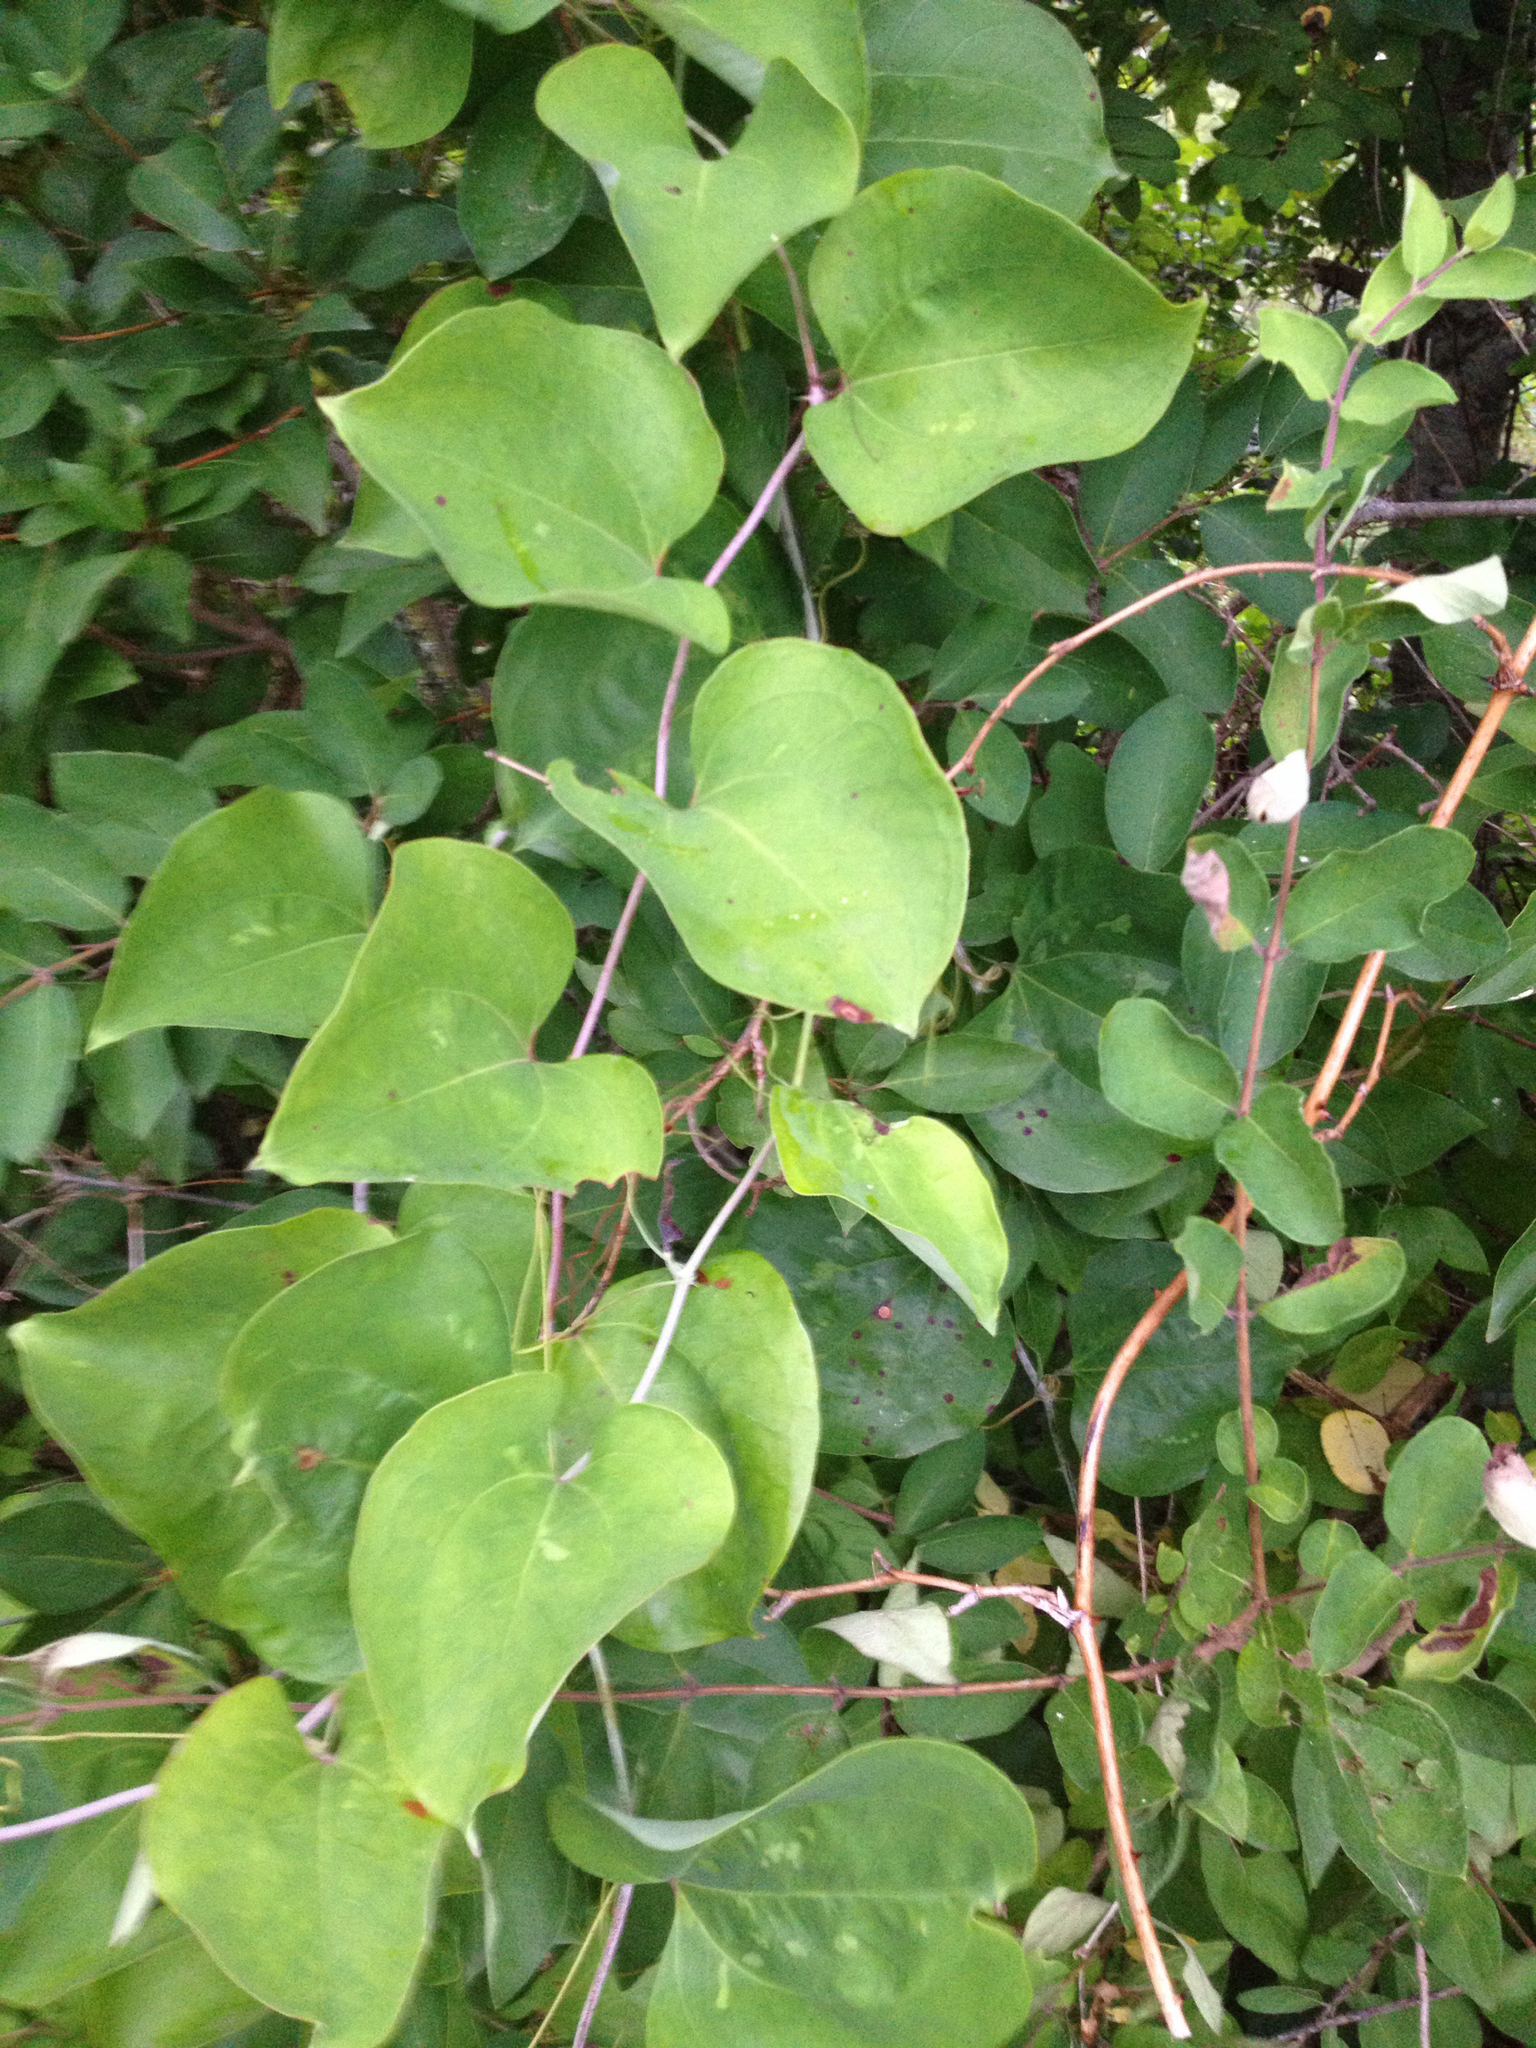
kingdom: Plantae
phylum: Tracheophyta
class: Liliopsida
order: Liliales
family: Smilacaceae
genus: Smilax
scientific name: Smilax rotundifolia
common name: Bullbriar
